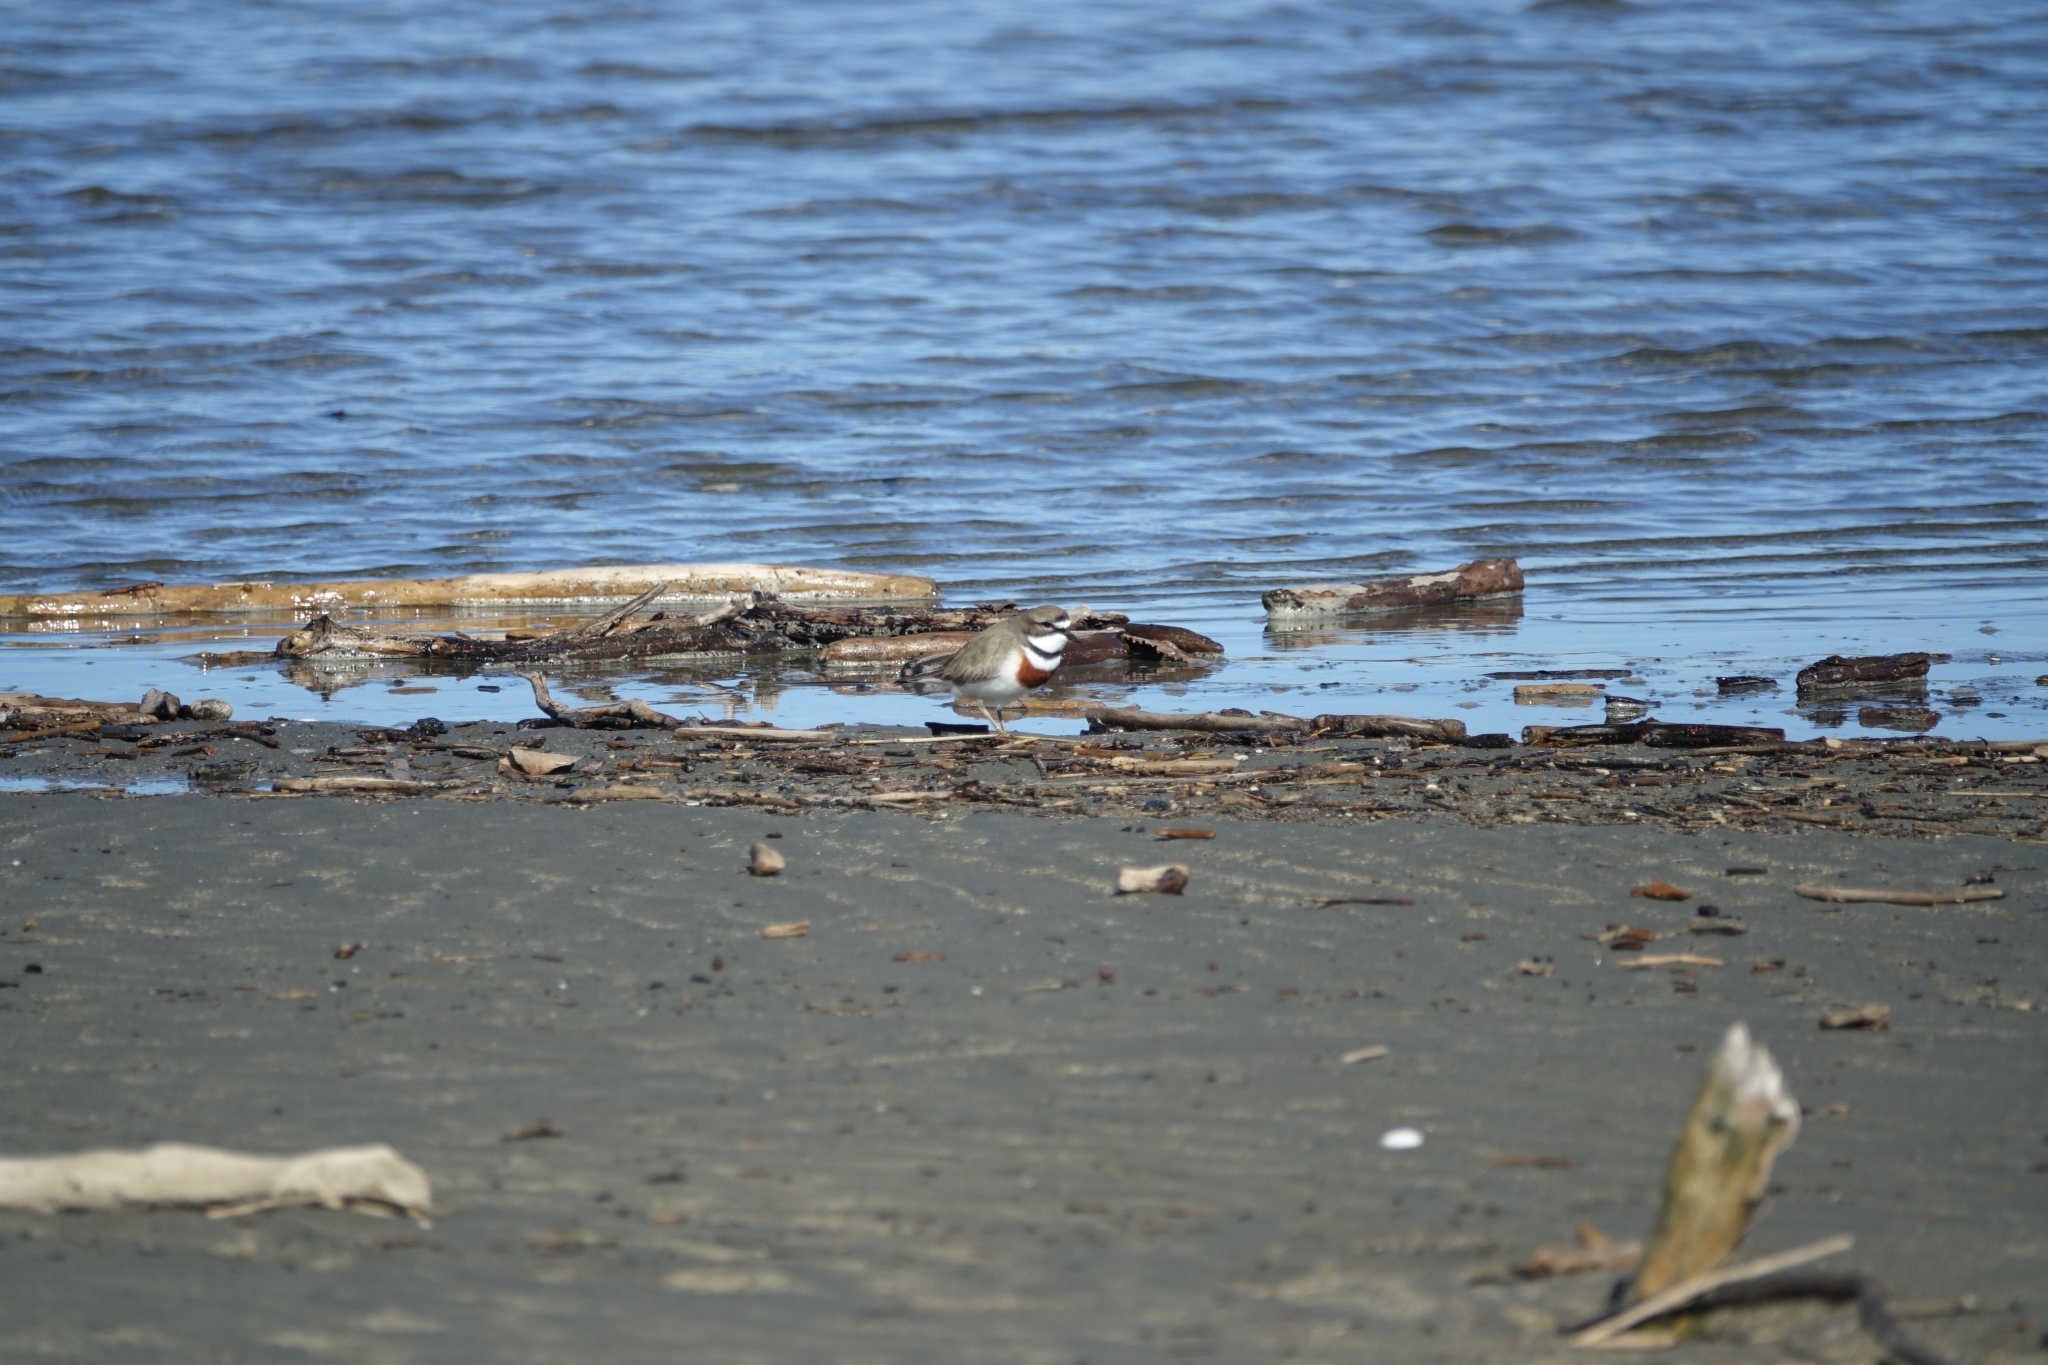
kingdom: Animalia
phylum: Chordata
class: Aves
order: Charadriiformes
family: Charadriidae
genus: Anarhynchus
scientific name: Anarhynchus
